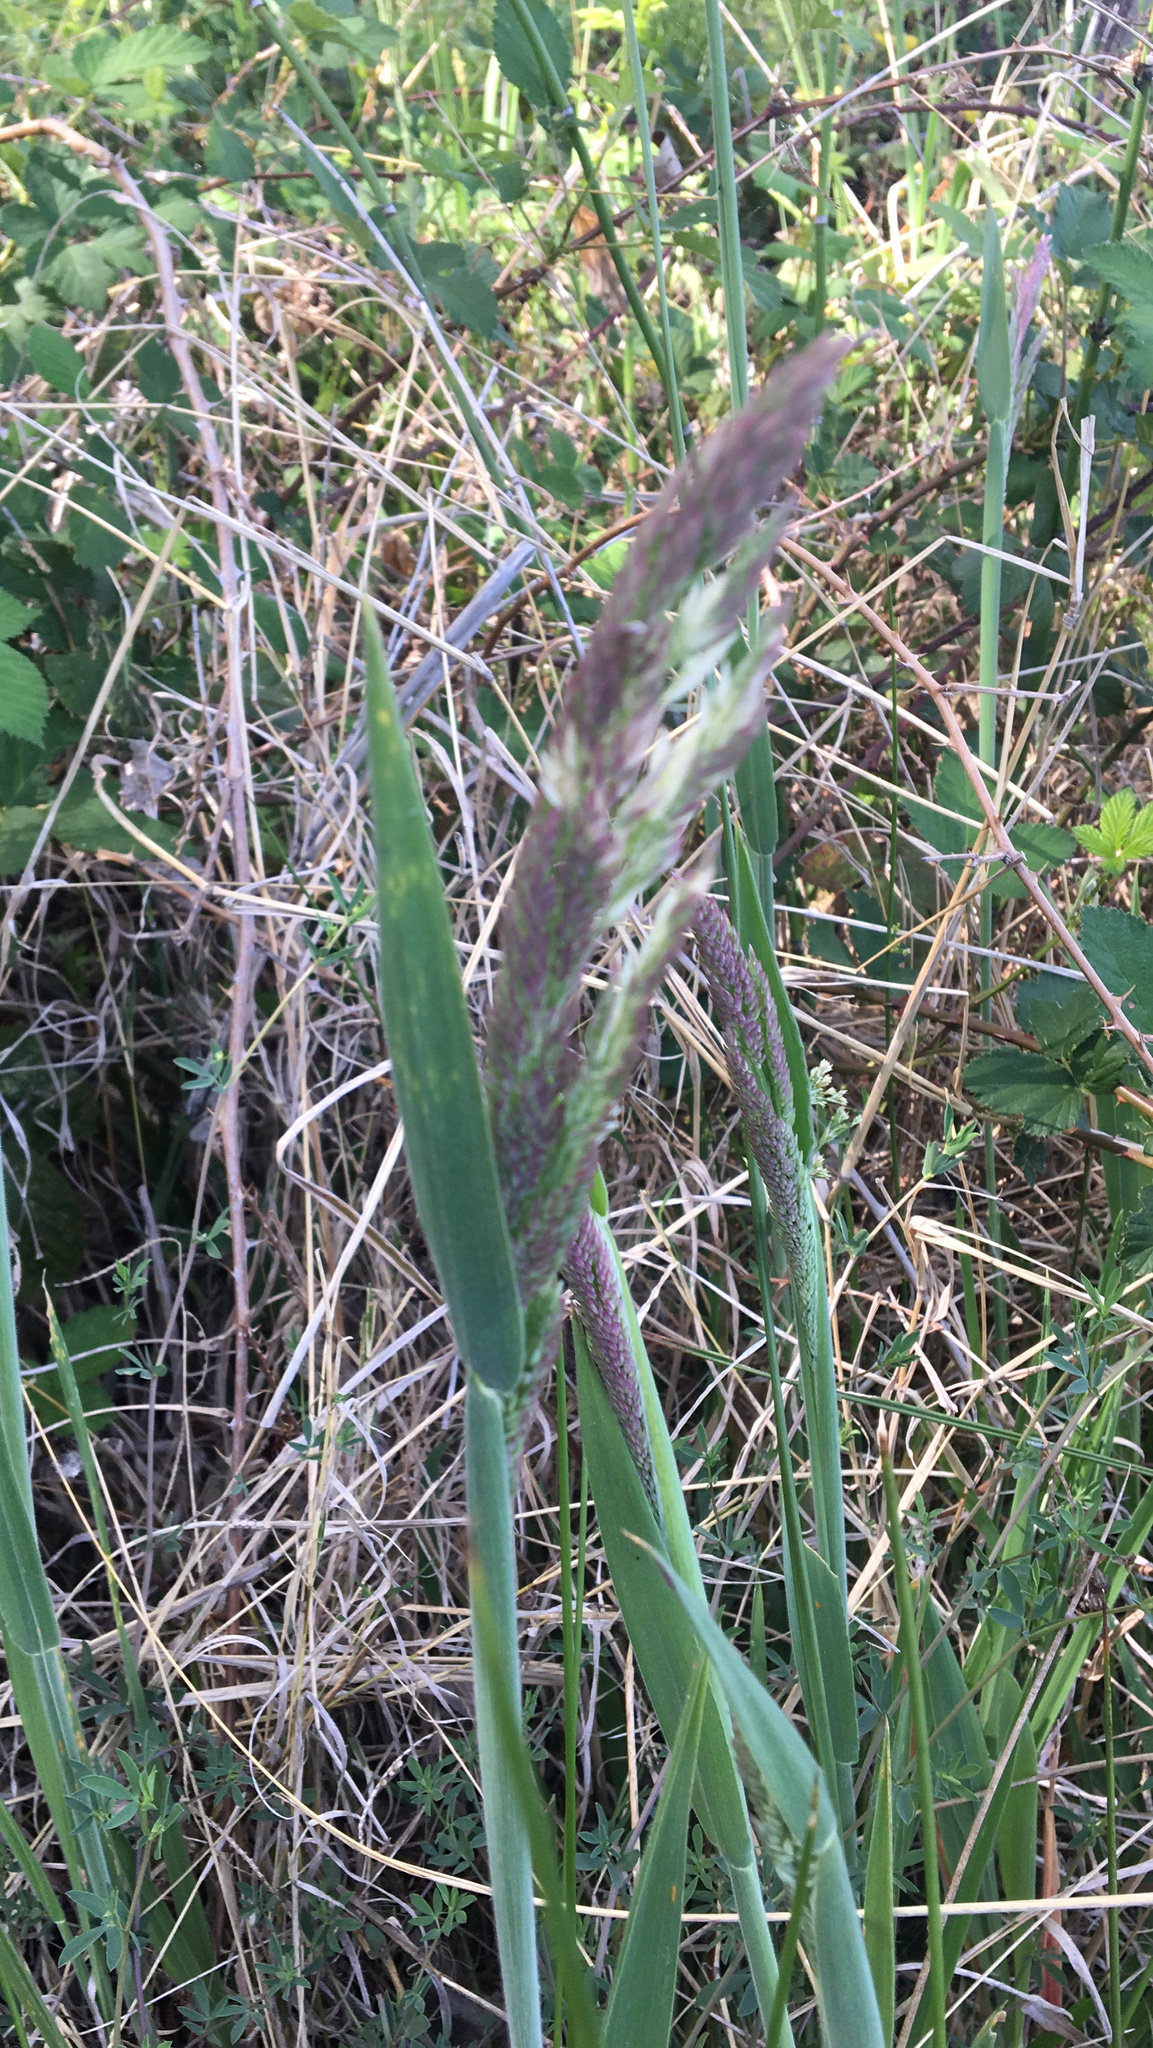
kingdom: Plantae
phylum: Tracheophyta
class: Liliopsida
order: Poales
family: Poaceae
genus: Holcus
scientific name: Holcus lanatus
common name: Yorkshire-fog
